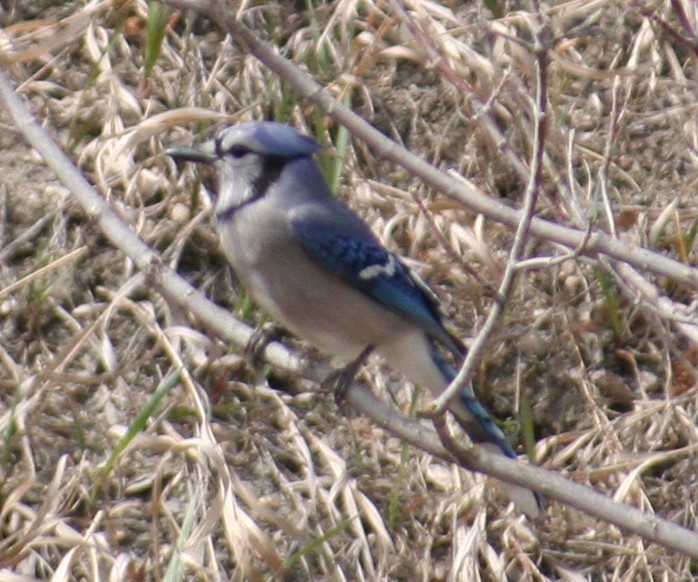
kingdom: Animalia
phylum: Chordata
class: Aves
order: Passeriformes
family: Corvidae
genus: Cyanocitta
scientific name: Cyanocitta cristata
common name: Blue jay
